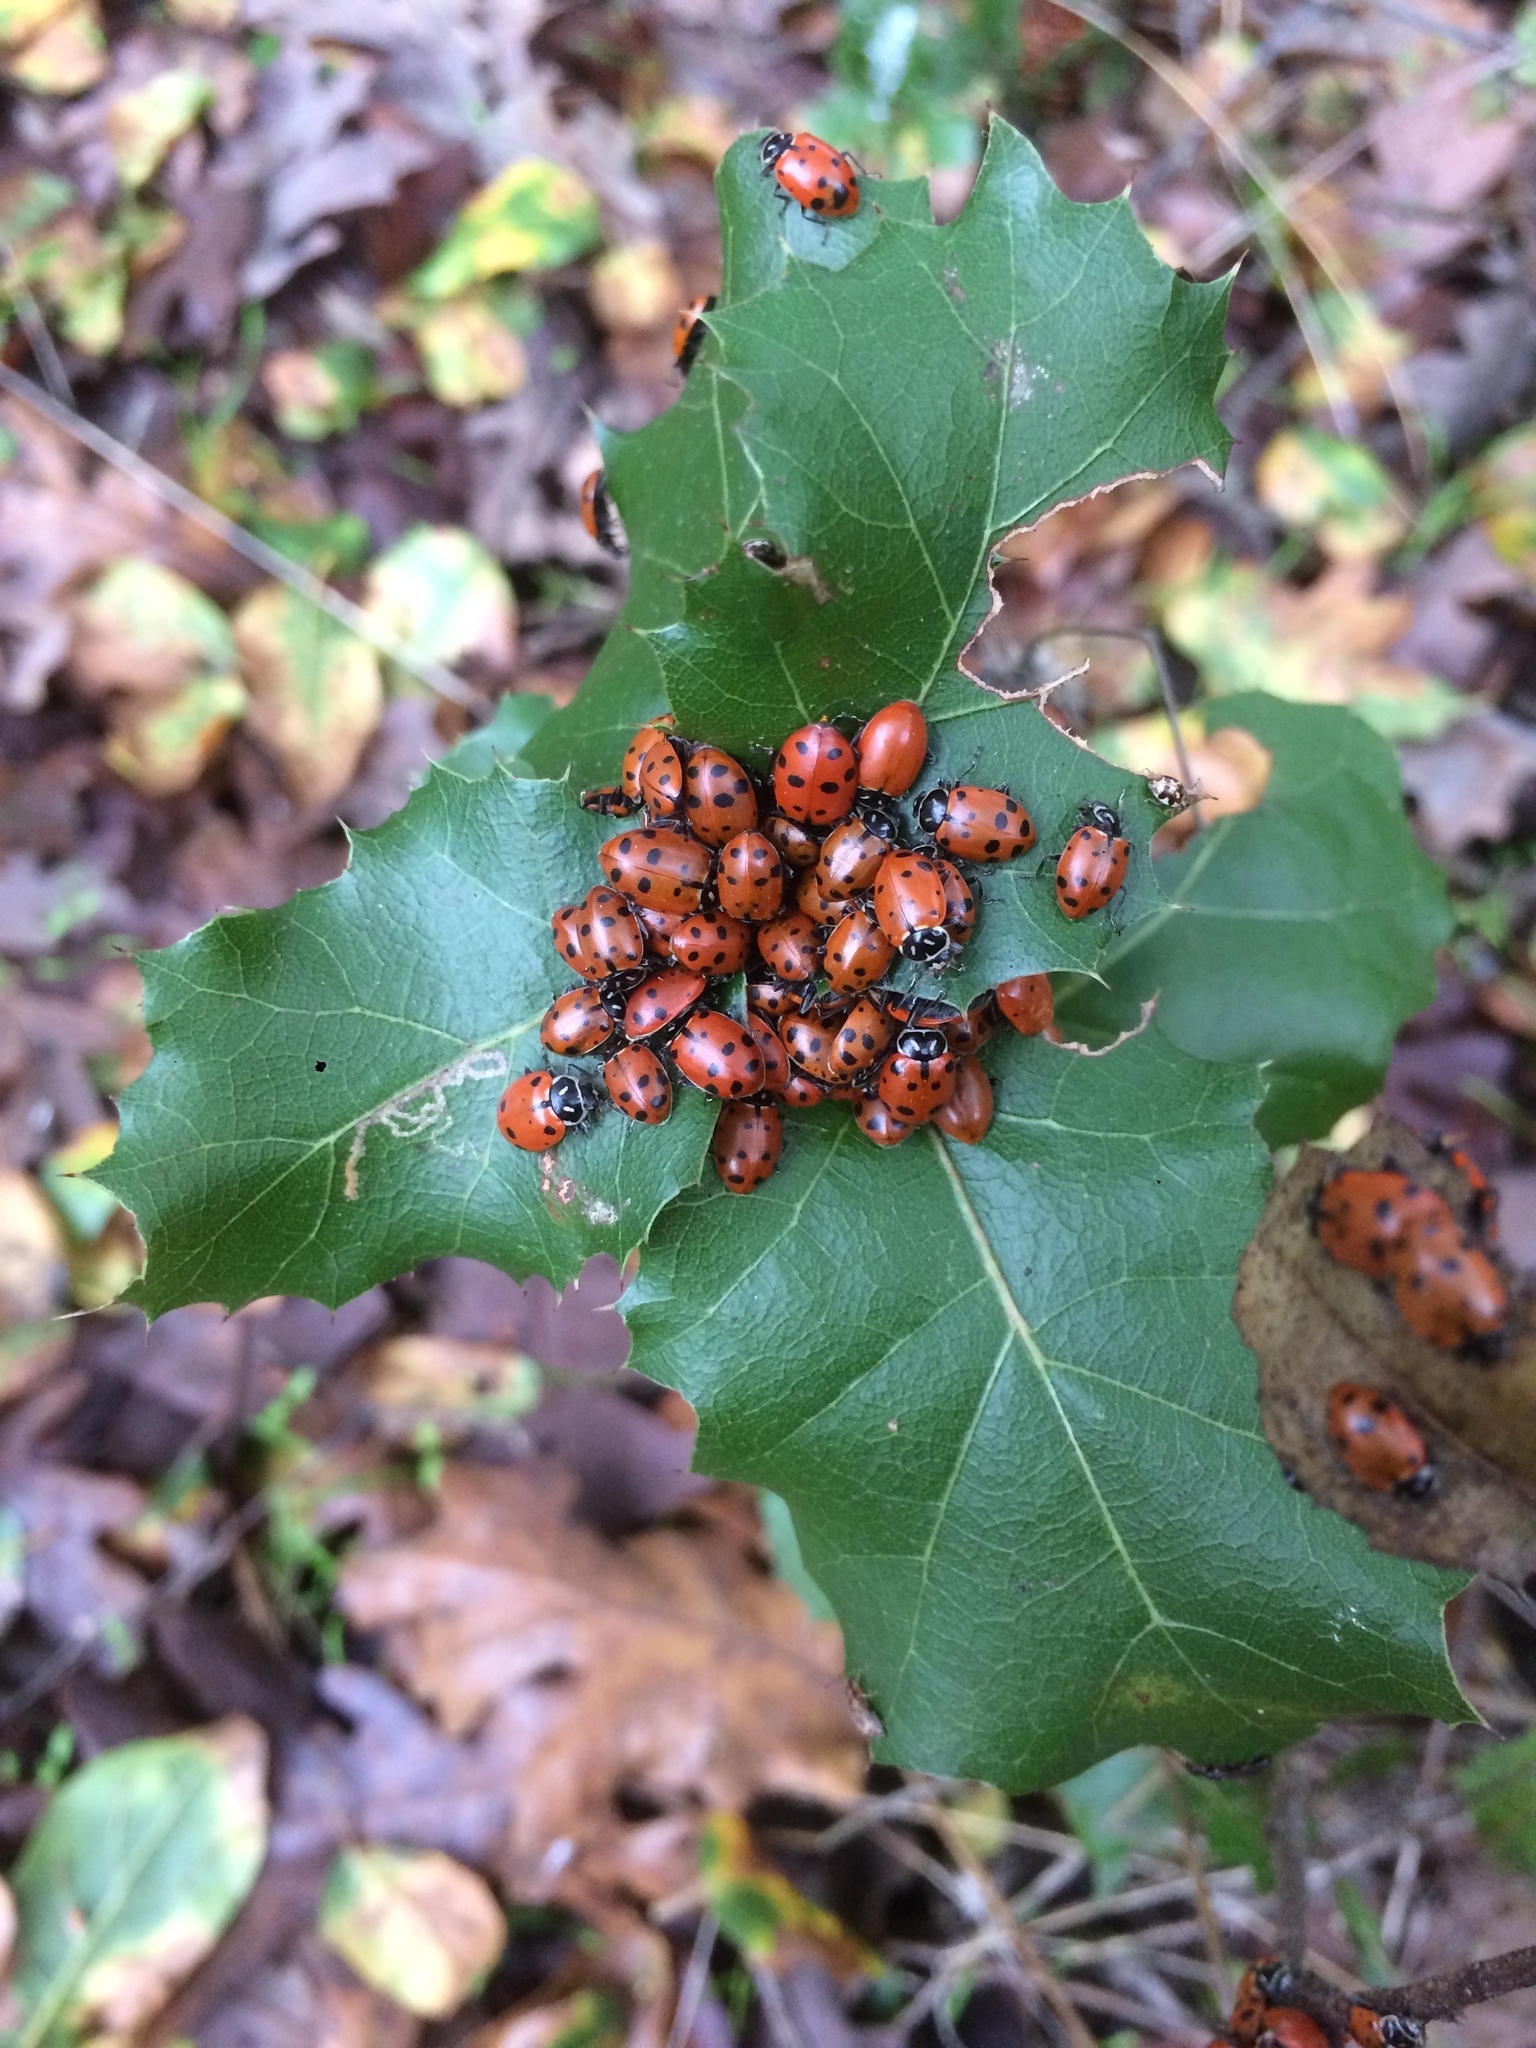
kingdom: Animalia
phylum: Arthropoda
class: Insecta
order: Coleoptera
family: Coccinellidae
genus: Hippodamia
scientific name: Hippodamia convergens
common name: Convergent lady beetle
